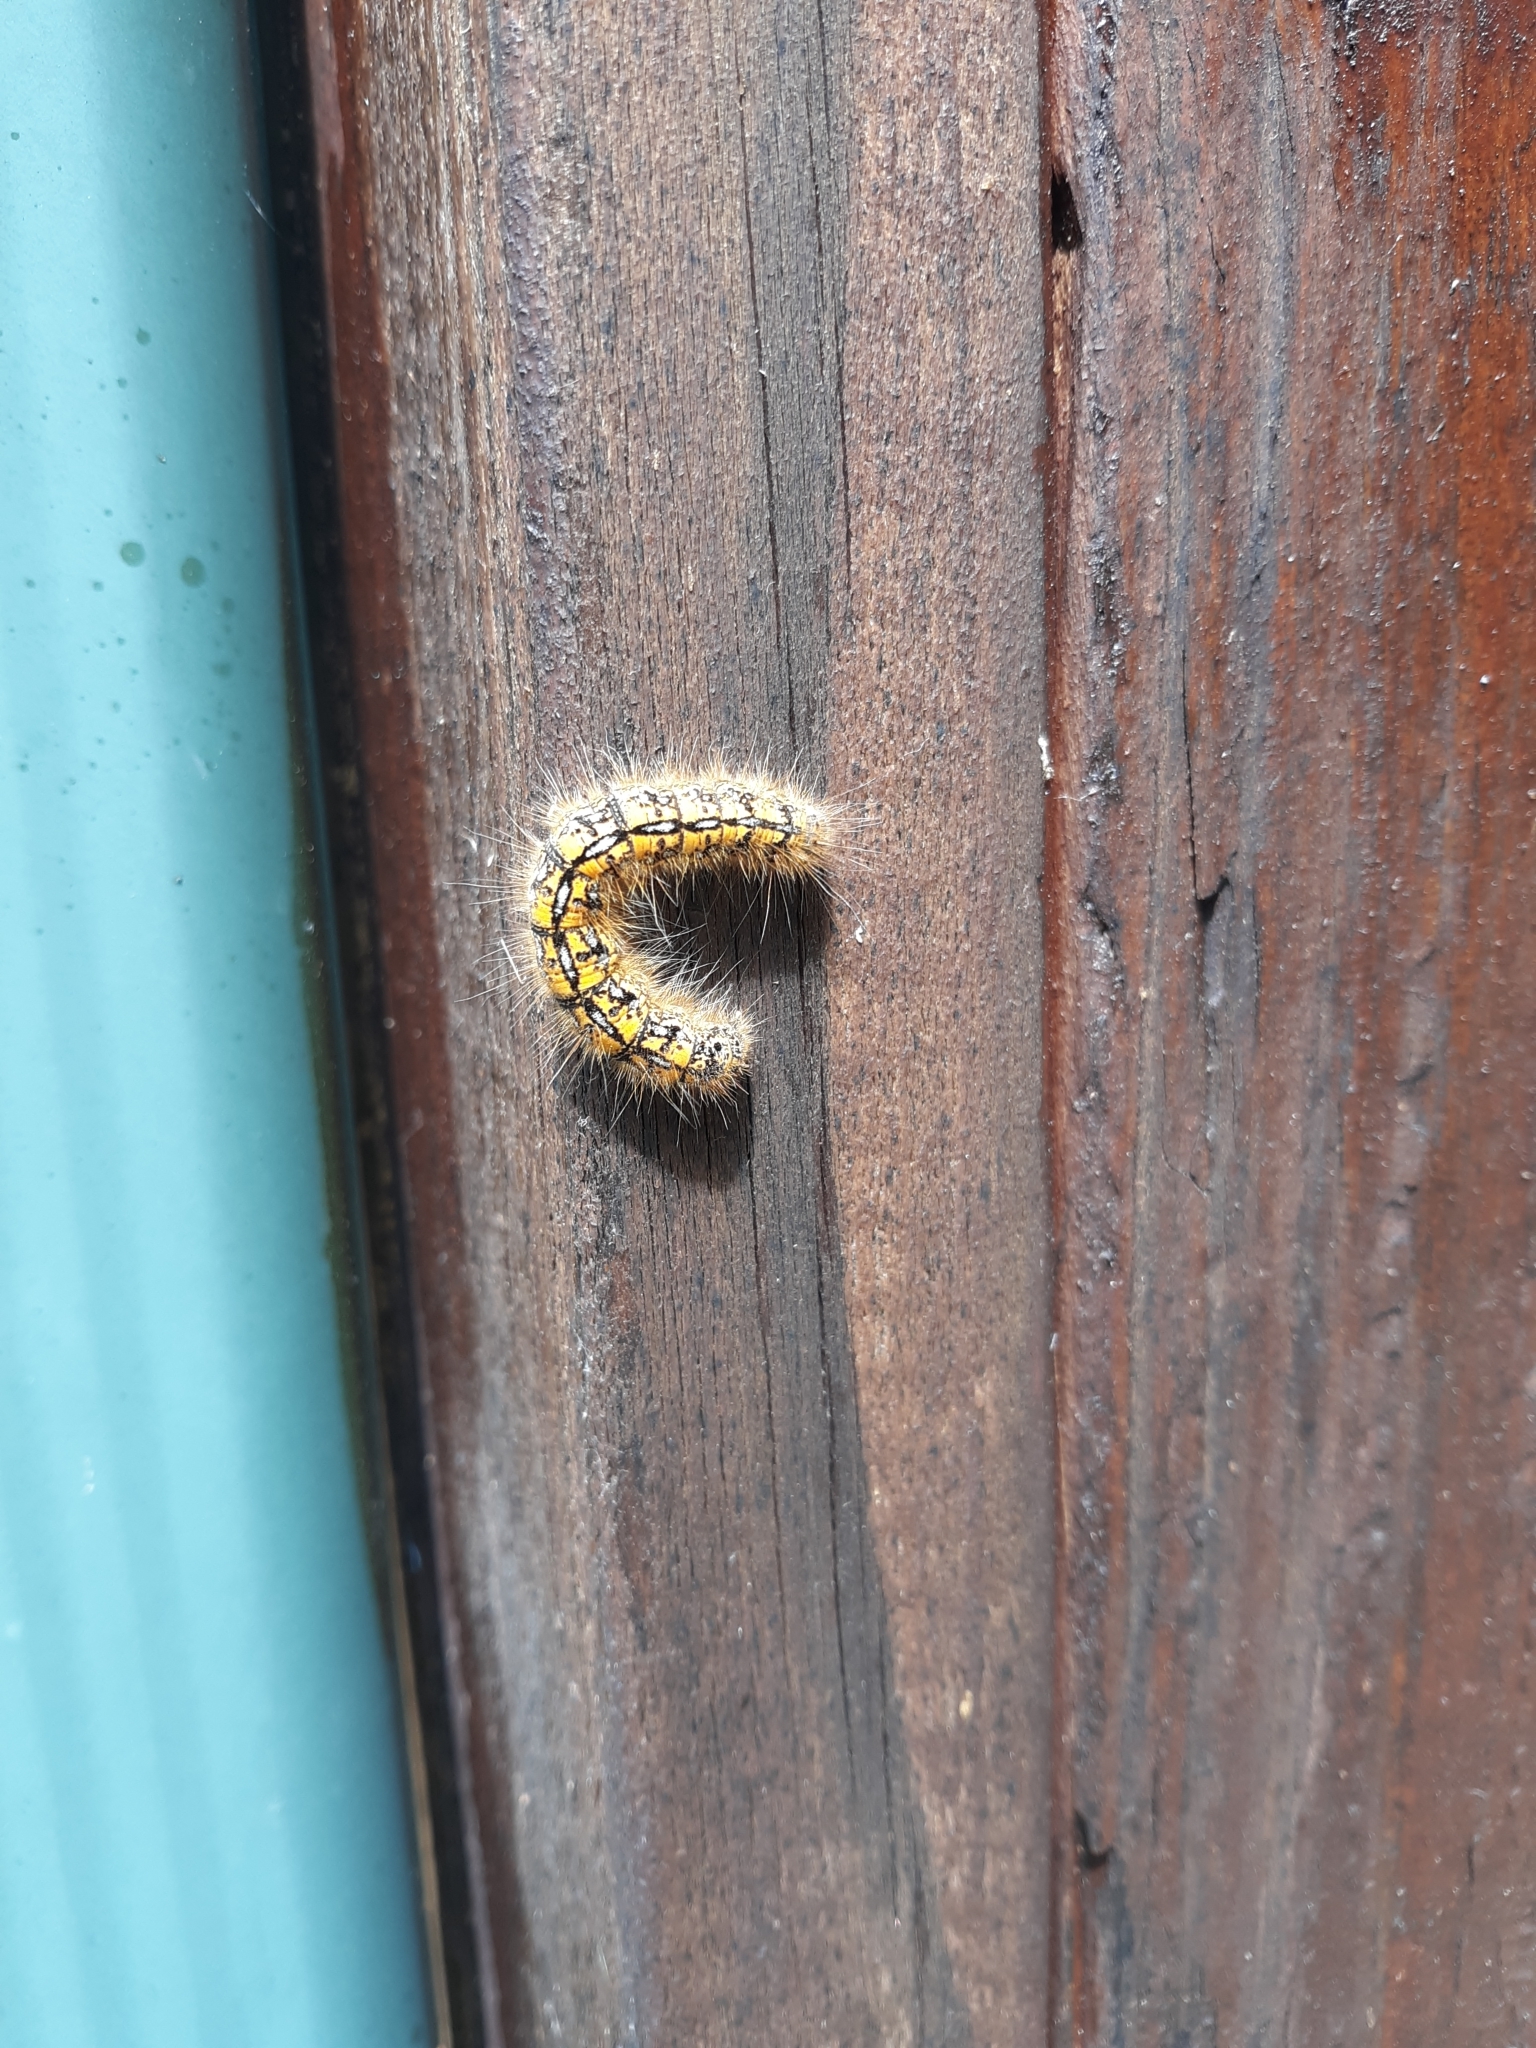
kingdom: Animalia
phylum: Arthropoda
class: Insecta
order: Lepidoptera
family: Lasiocampidae
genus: Malacosoma
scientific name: Malacosoma californica
